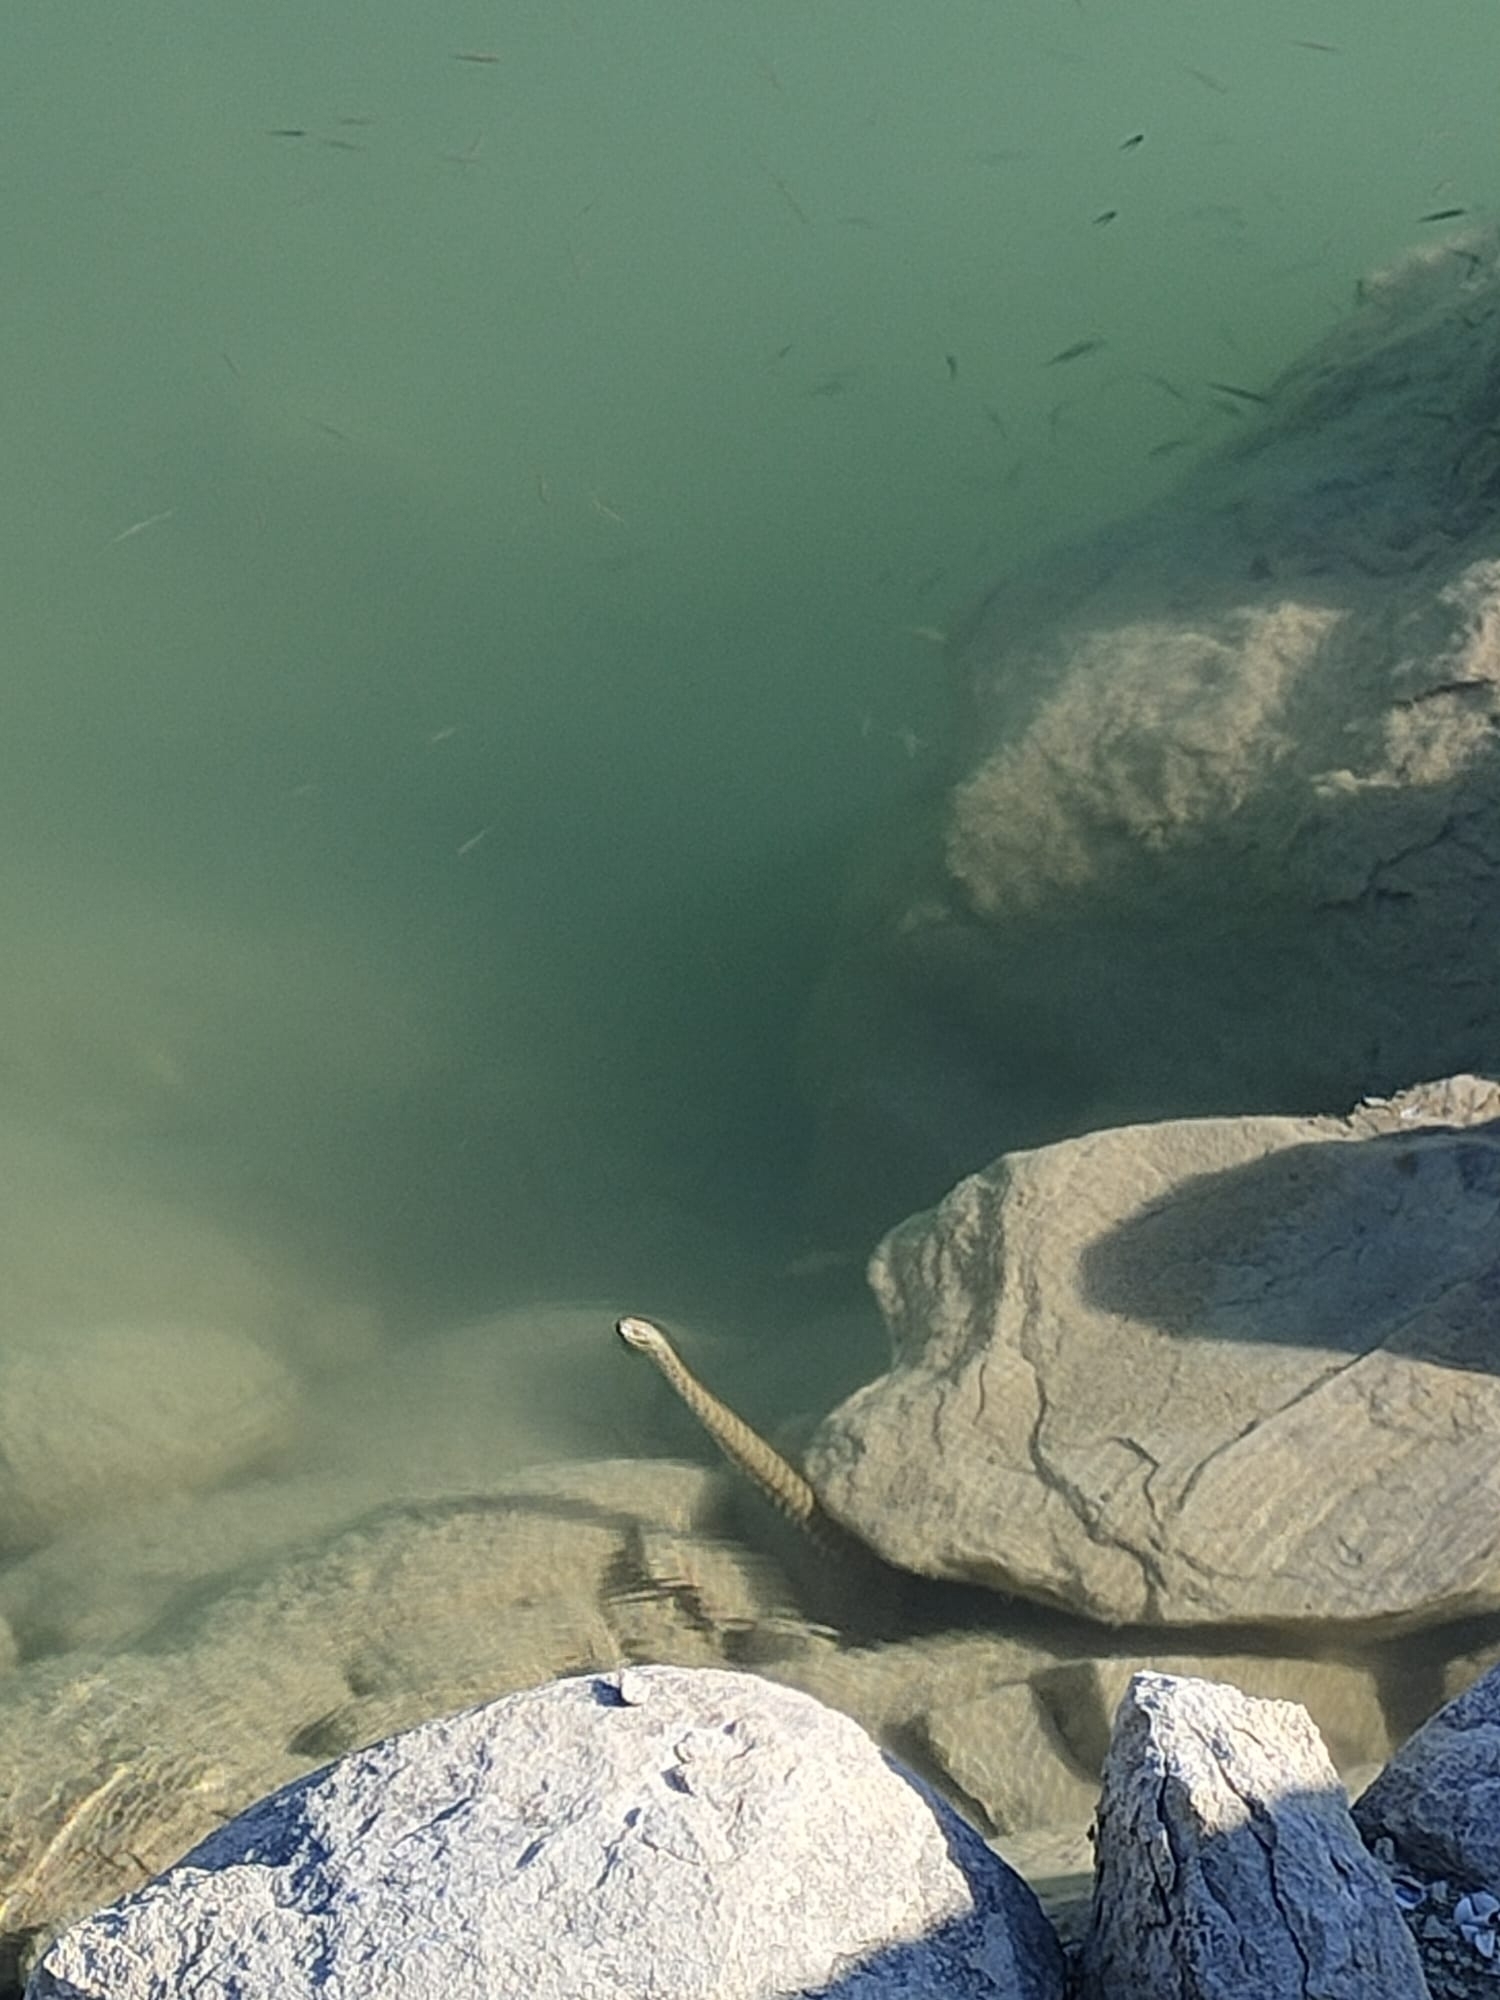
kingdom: Animalia
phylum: Chordata
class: Squamata
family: Colubridae
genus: Natrix
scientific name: Natrix tessellata
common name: Dice snake
